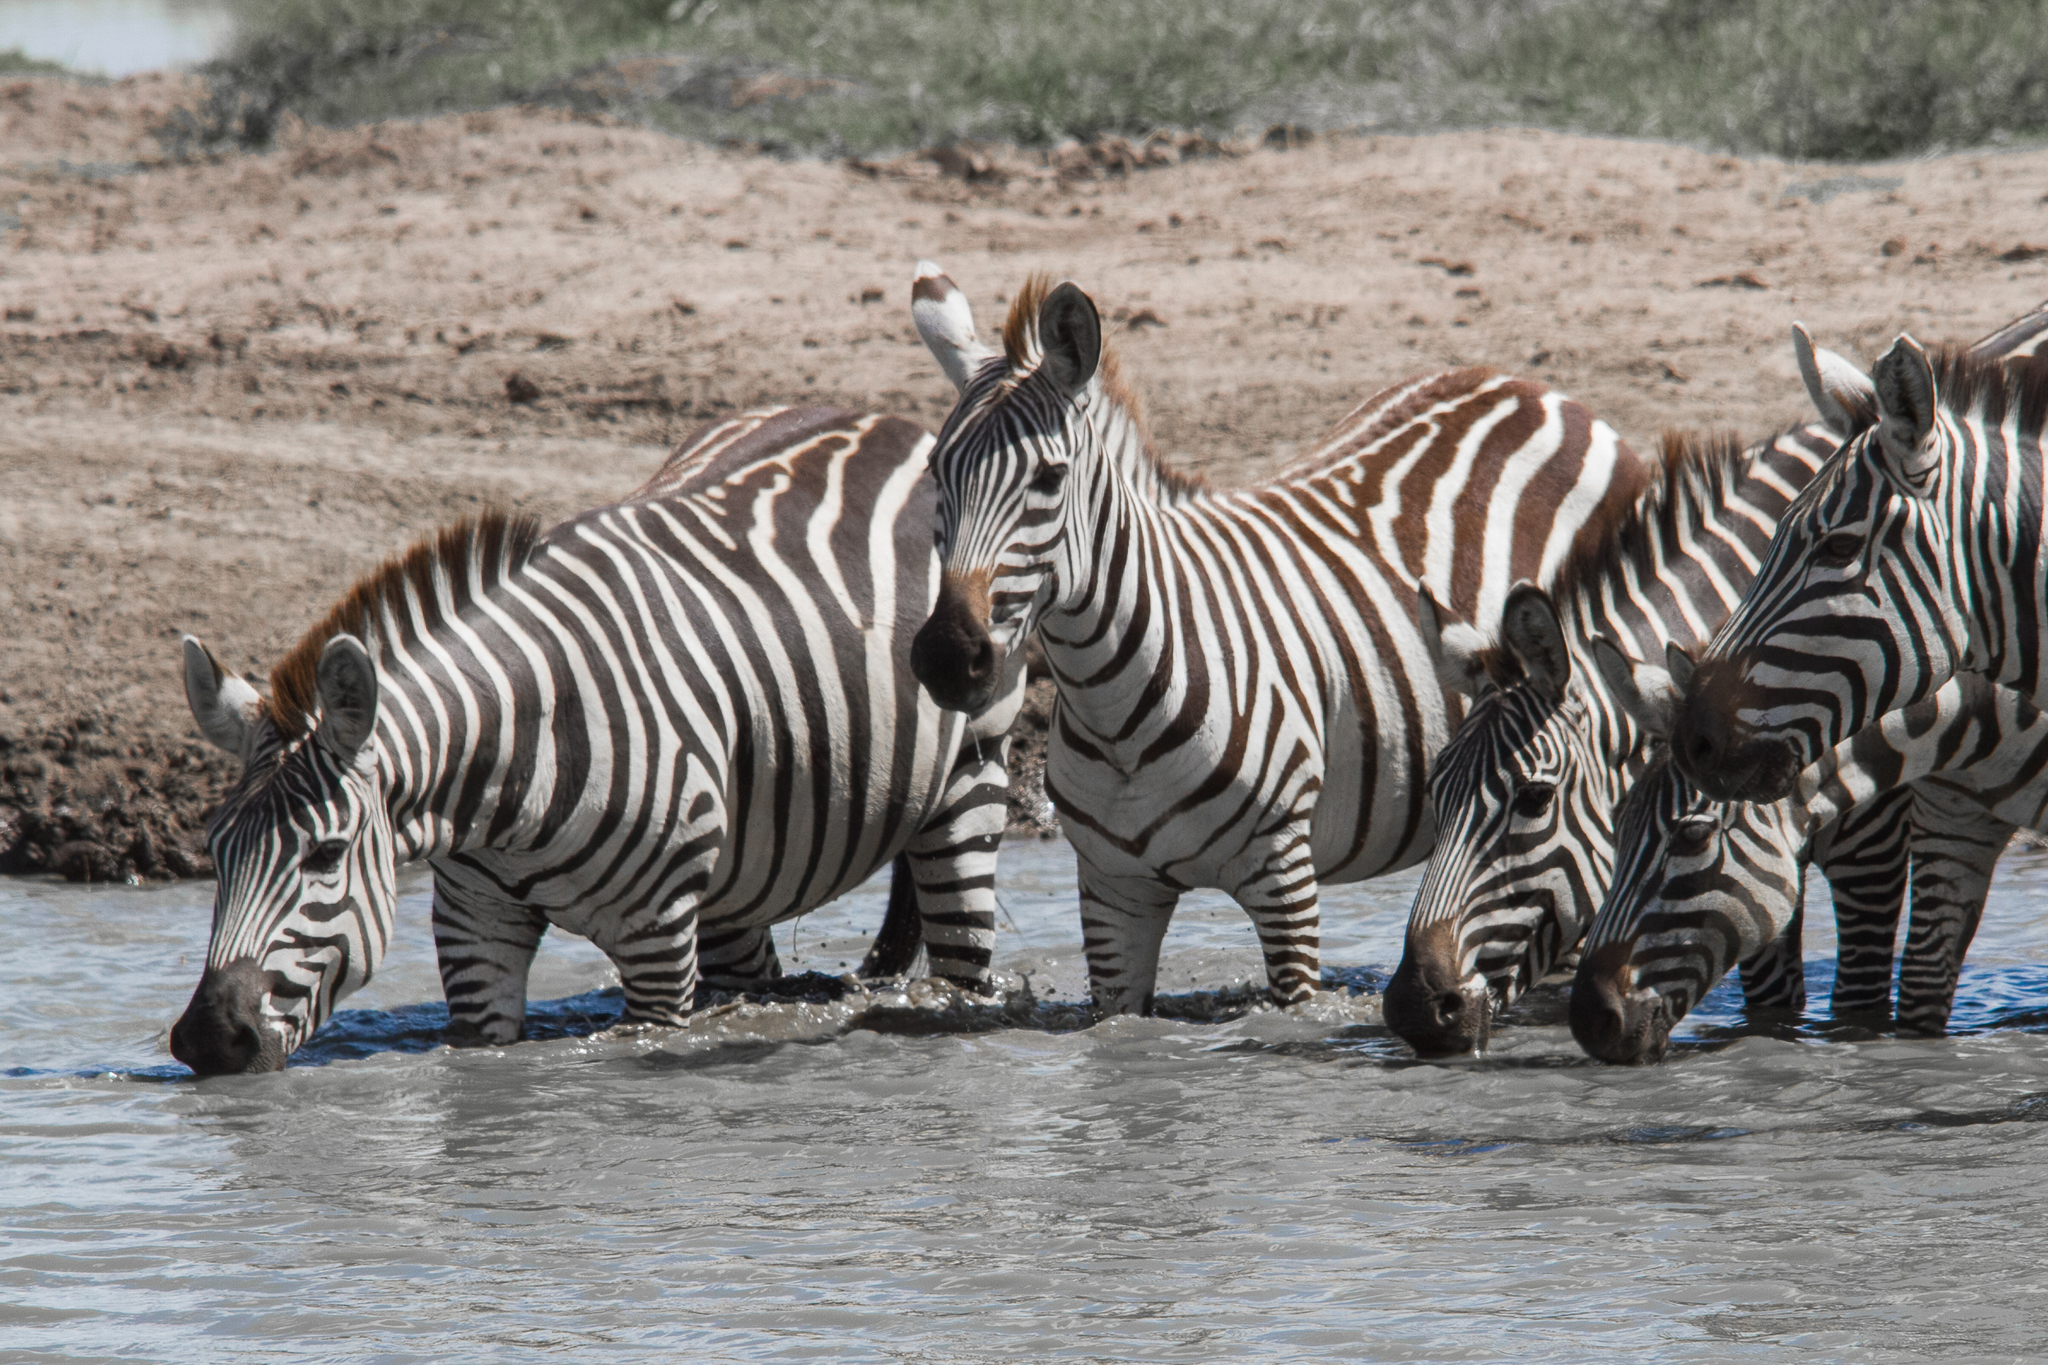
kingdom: Animalia
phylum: Chordata
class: Mammalia
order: Perissodactyla
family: Equidae
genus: Equus
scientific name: Equus quagga
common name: Plains zebra
